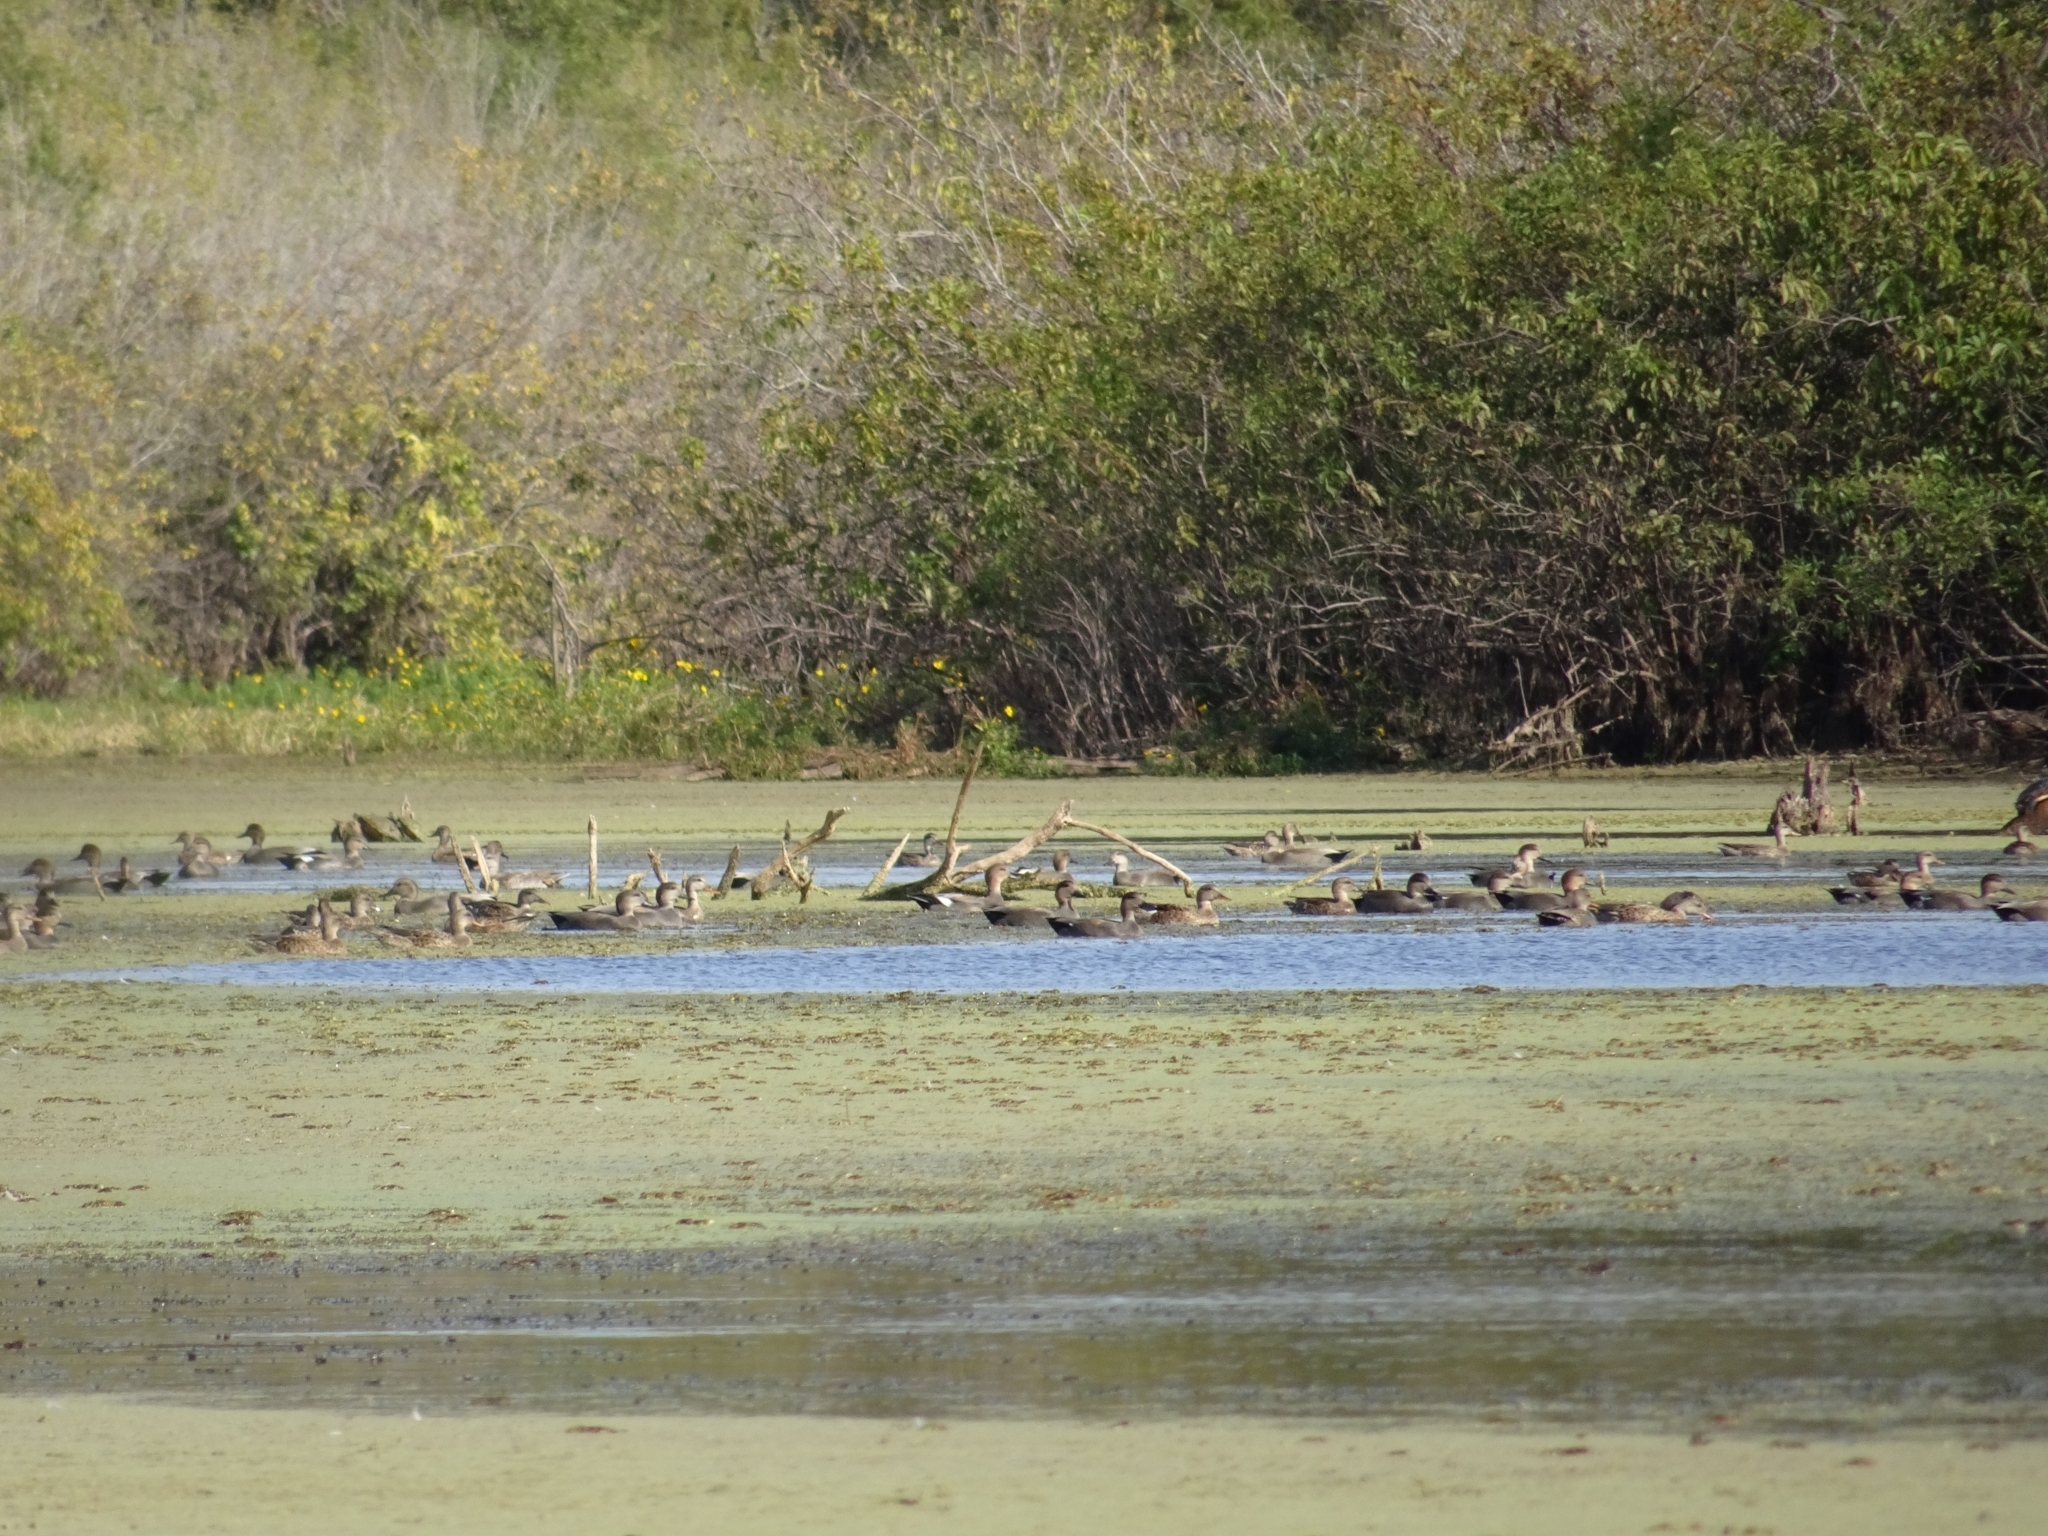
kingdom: Animalia
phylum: Chordata
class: Aves
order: Anseriformes
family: Anatidae
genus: Mareca
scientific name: Mareca strepera
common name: Gadwall
